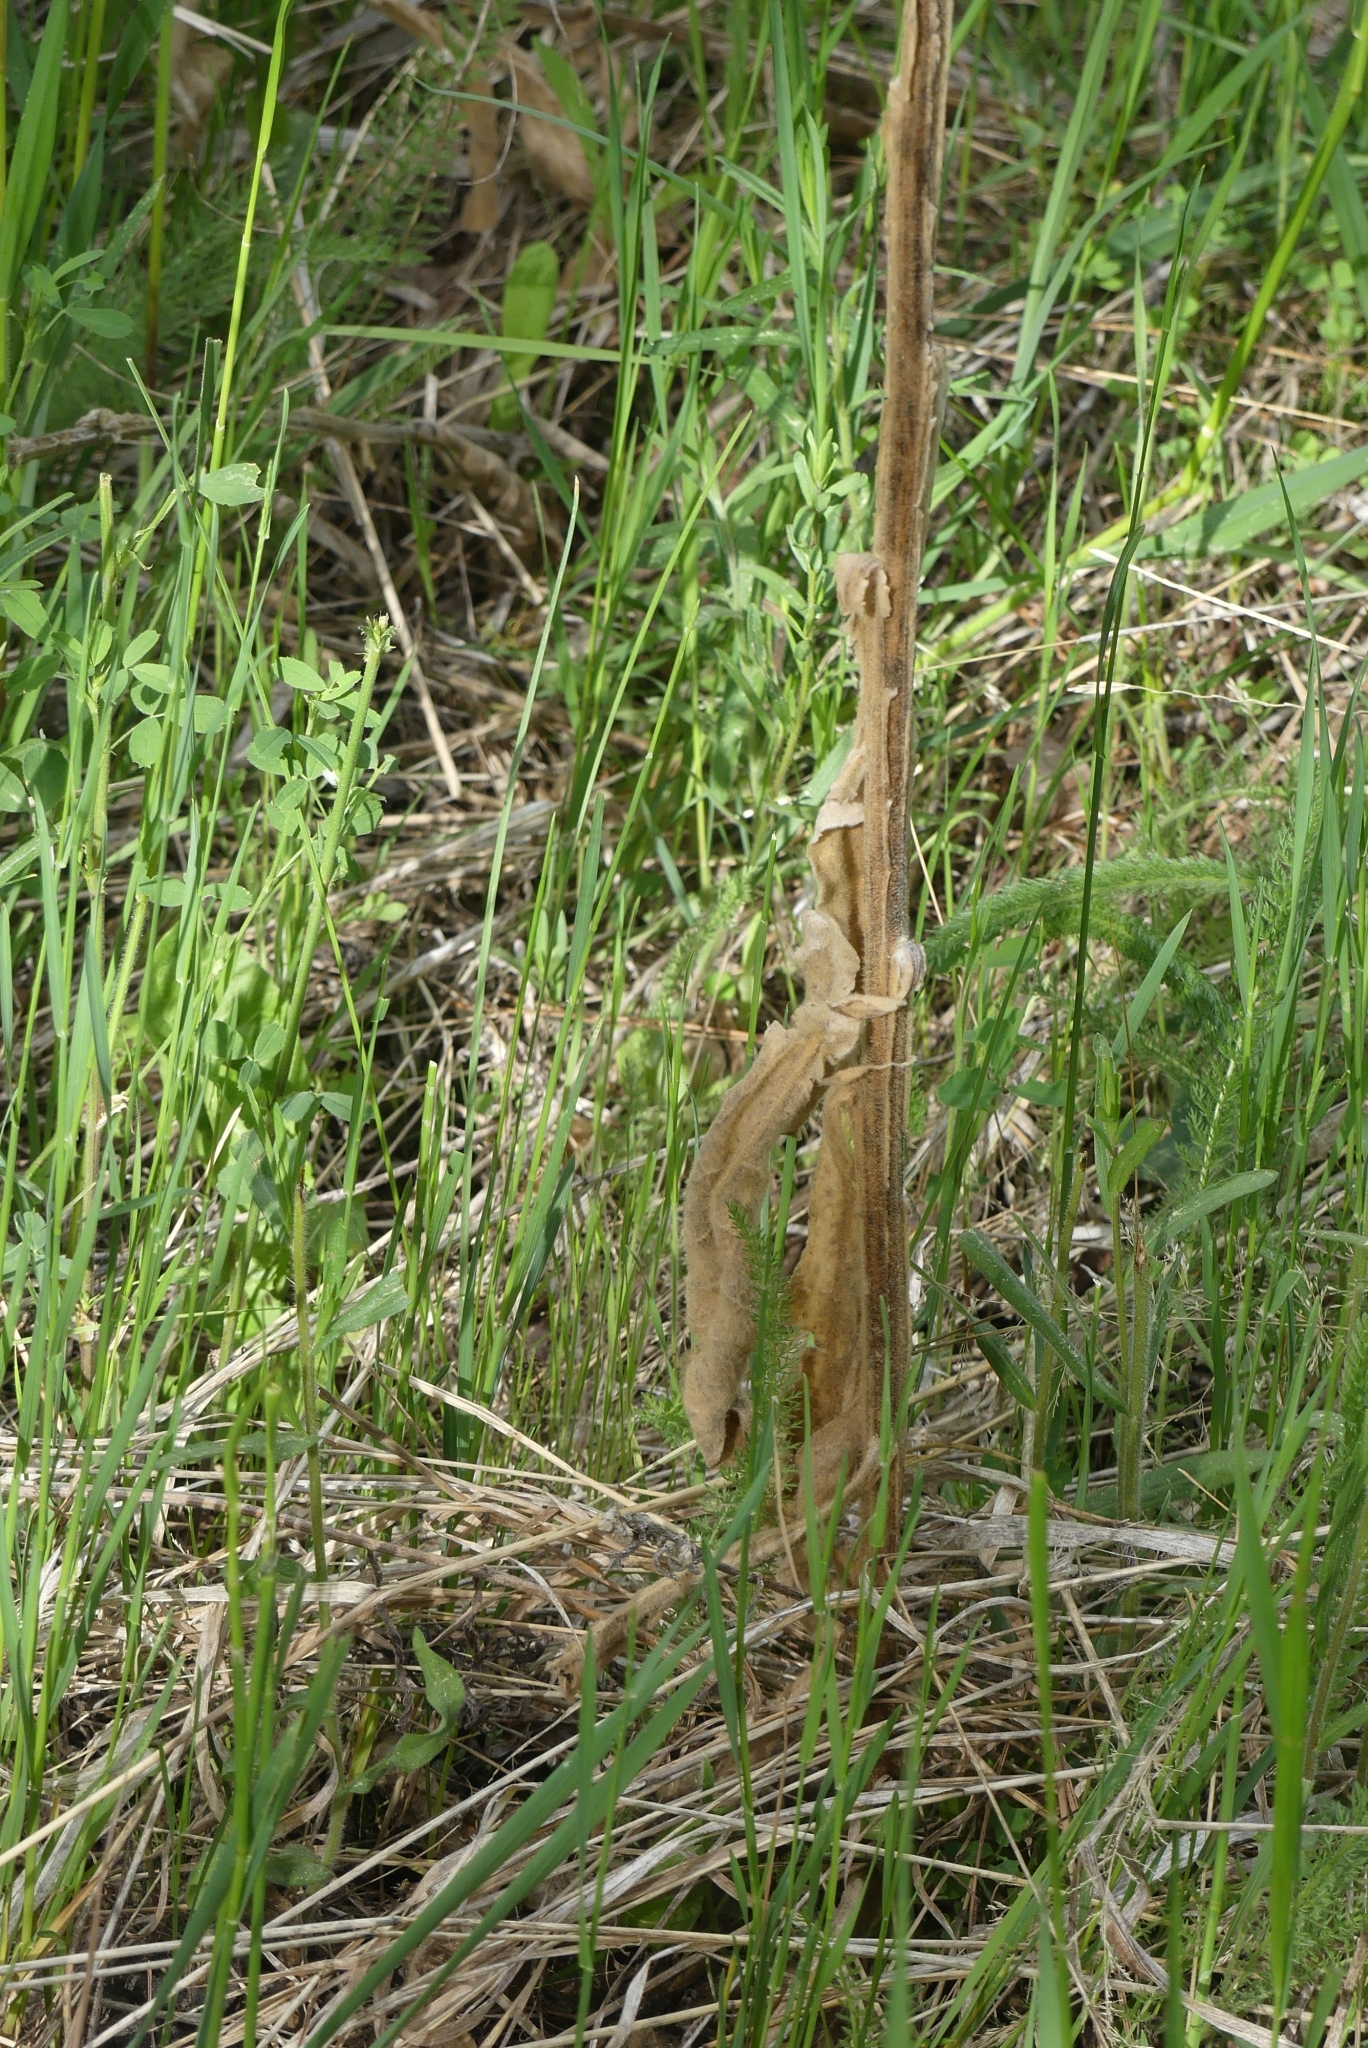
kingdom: Plantae
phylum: Tracheophyta
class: Magnoliopsida
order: Lamiales
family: Scrophulariaceae
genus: Verbascum
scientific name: Verbascum thapsus
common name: Common mullein
